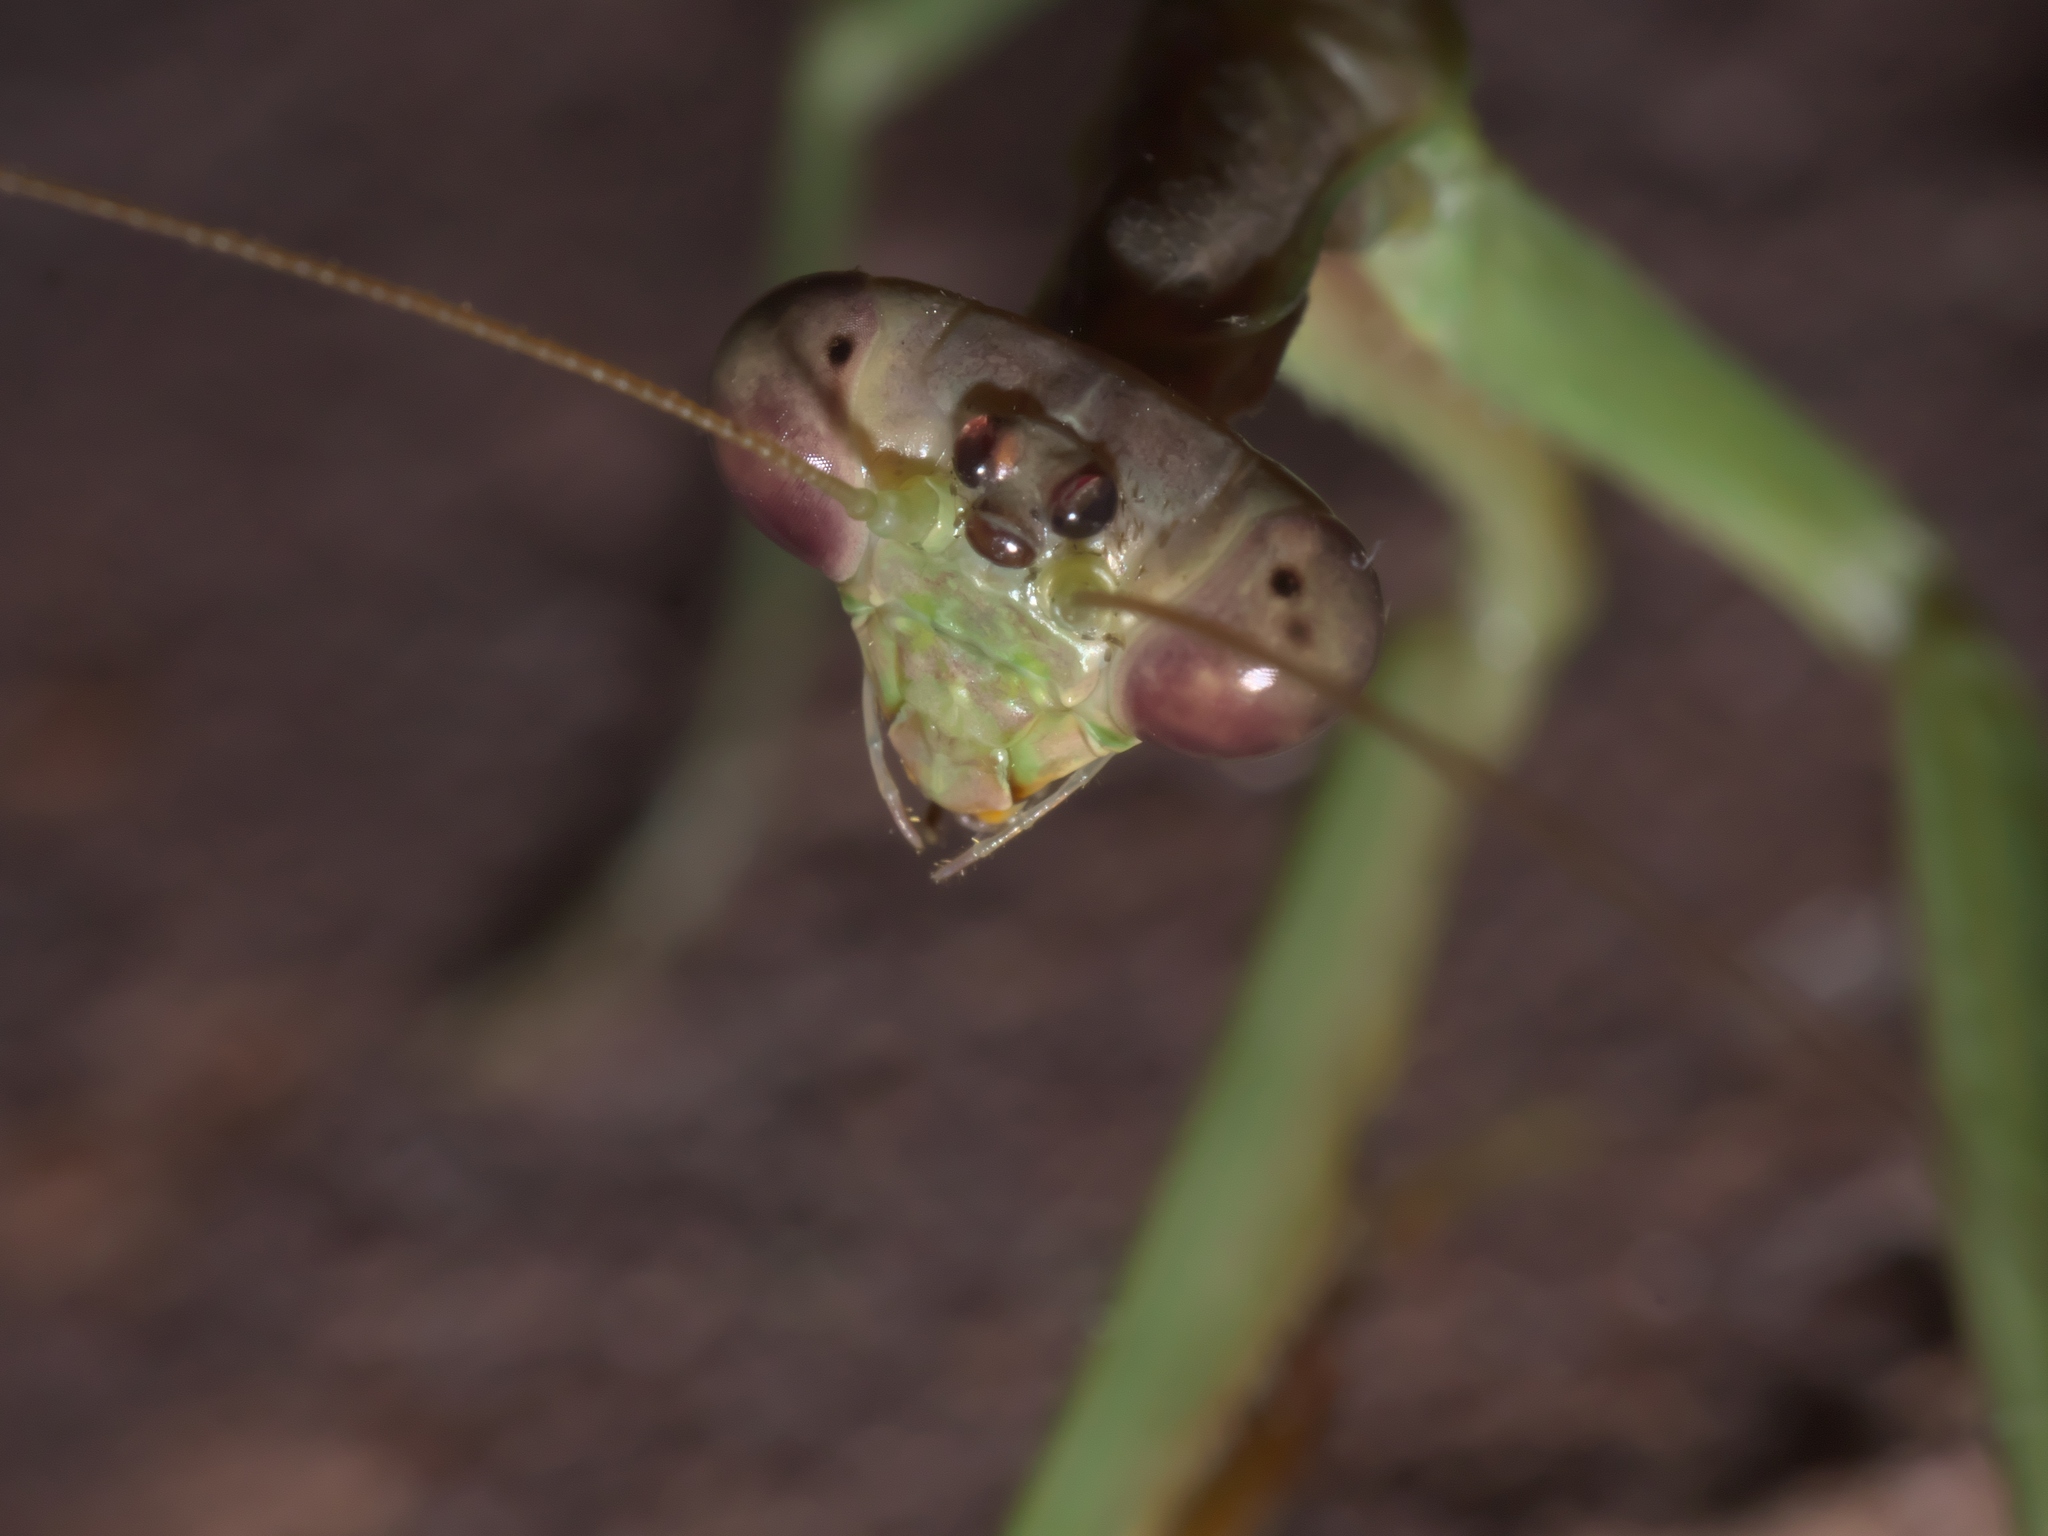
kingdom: Animalia
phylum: Arthropoda
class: Insecta
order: Mantodea
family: Mantidae
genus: Stagmomantis
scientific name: Stagmomantis carolina
